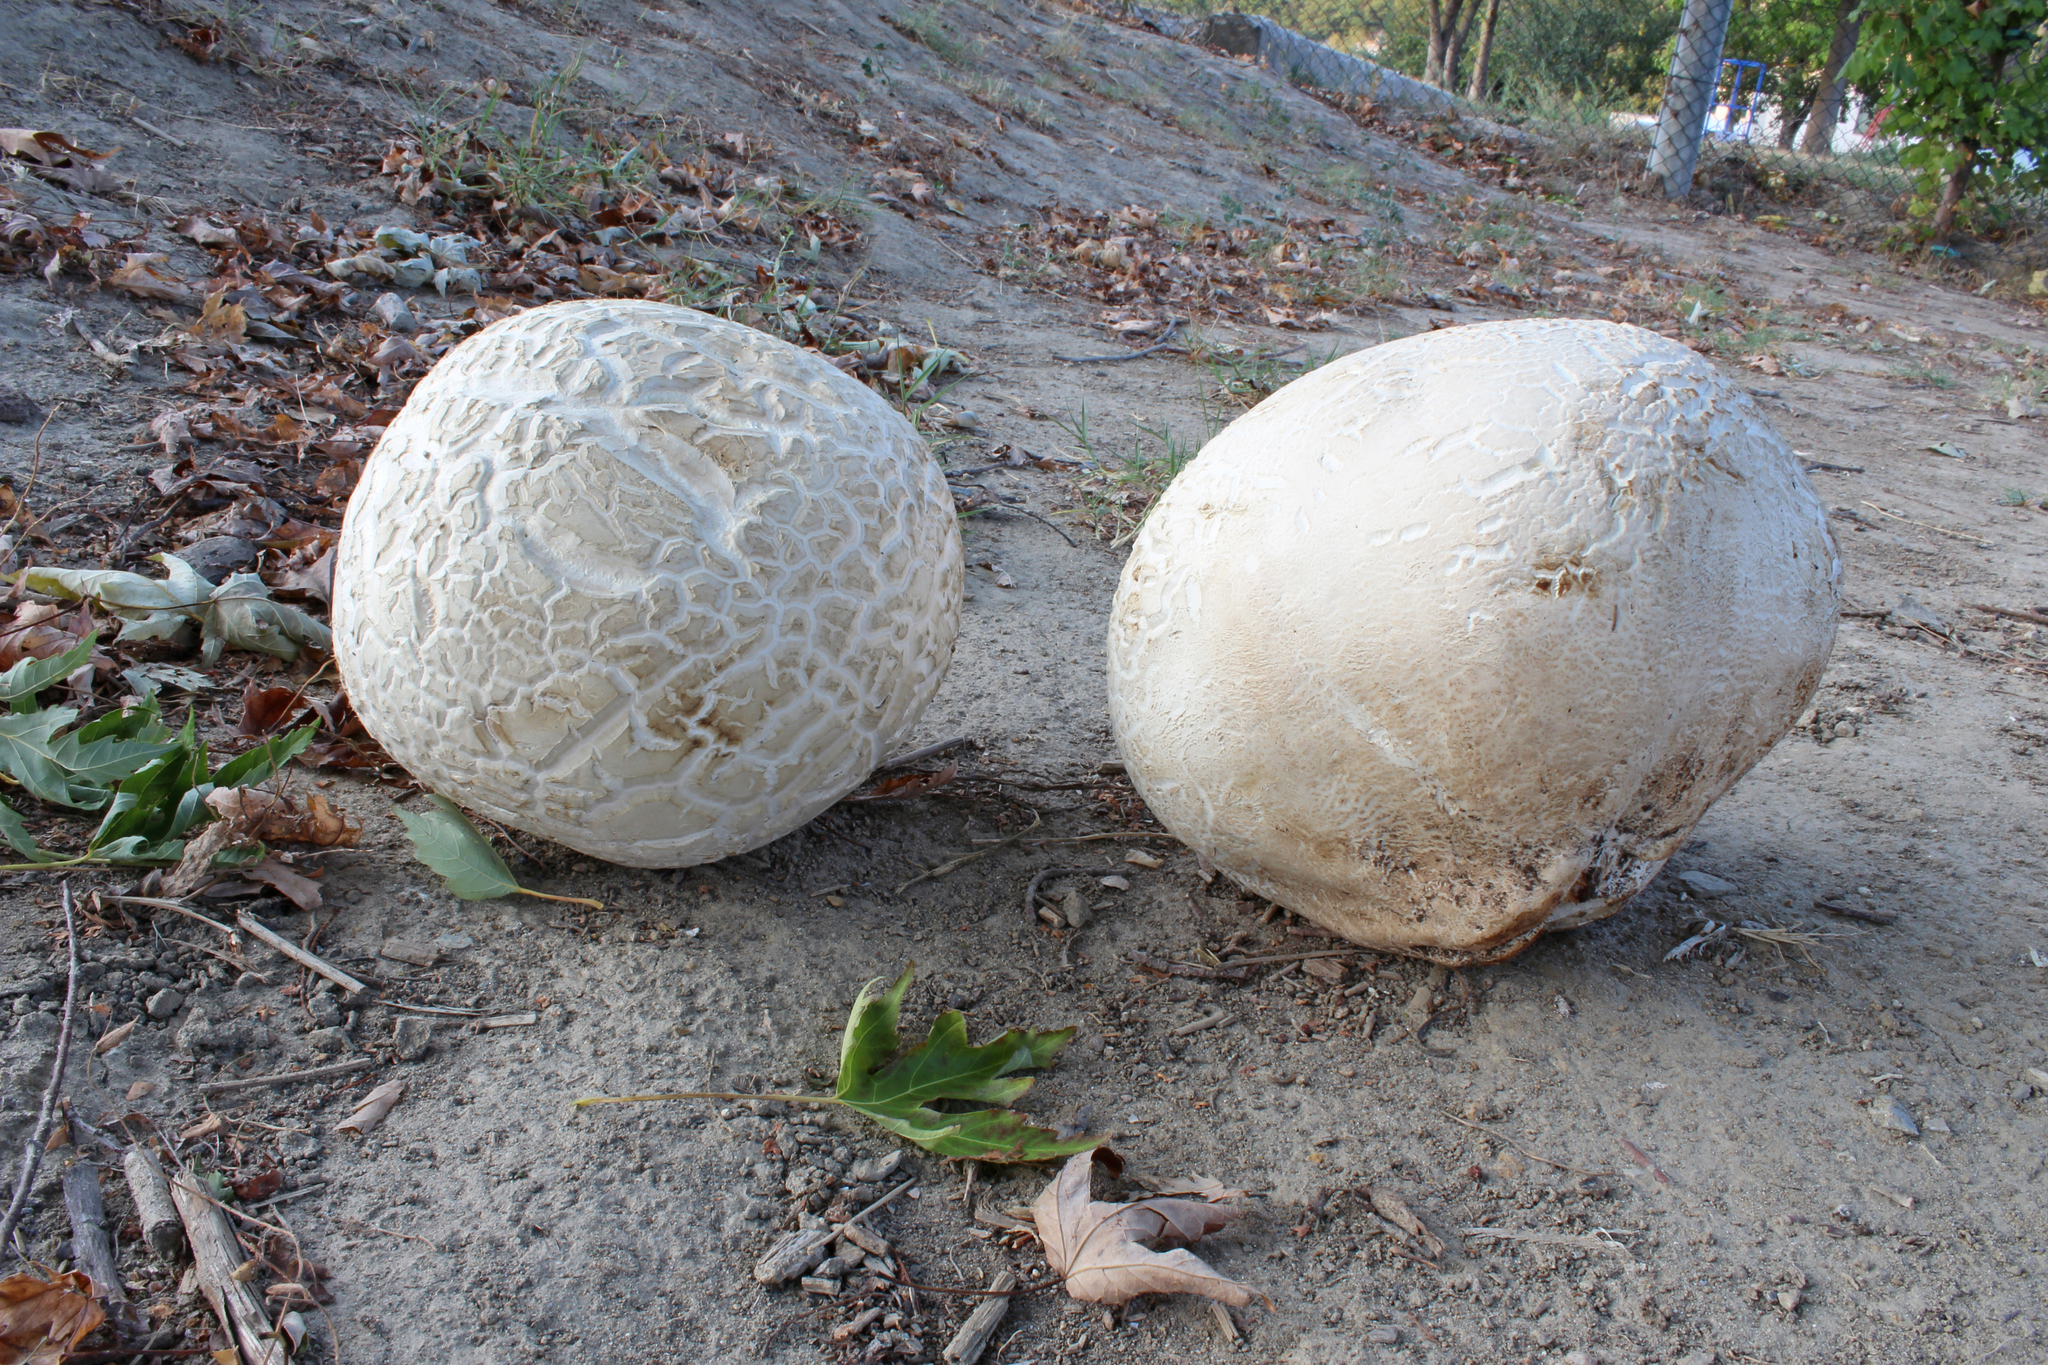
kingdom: Fungi
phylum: Basidiomycota
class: Agaricomycetes
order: Agaricales
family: Lycoperdaceae
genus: Calvatia
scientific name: Calvatia booniana
